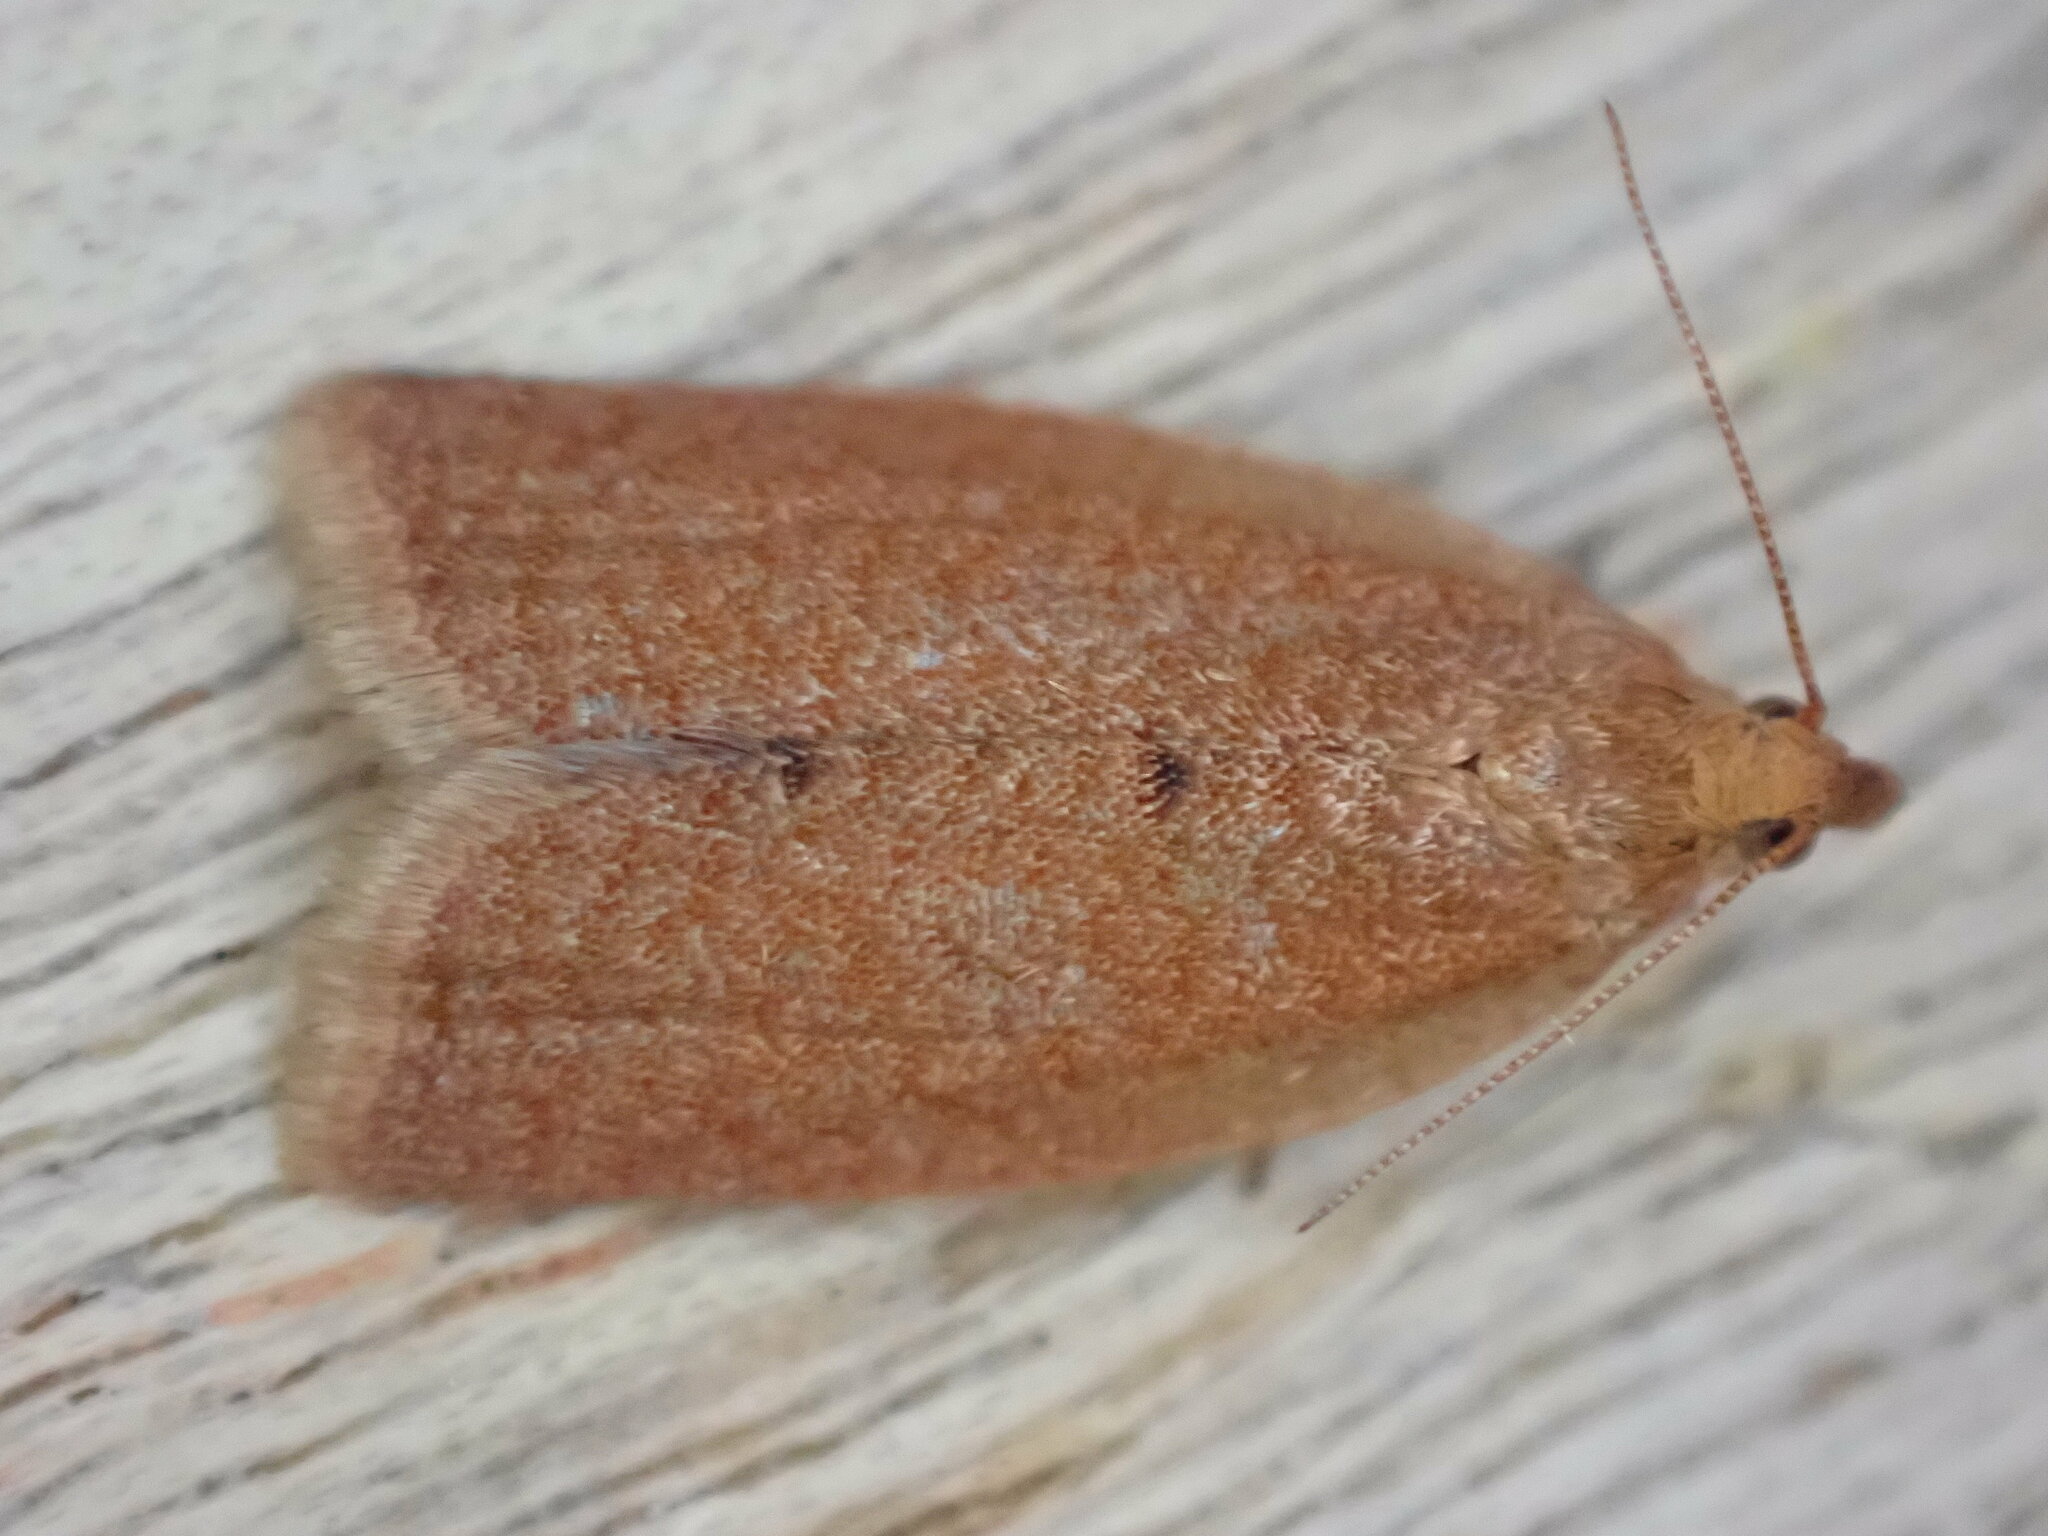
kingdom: Animalia
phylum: Arthropoda
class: Insecta
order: Lepidoptera
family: Tortricidae
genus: Clepsis
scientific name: Clepsis consimilana
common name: Privet tortrix
